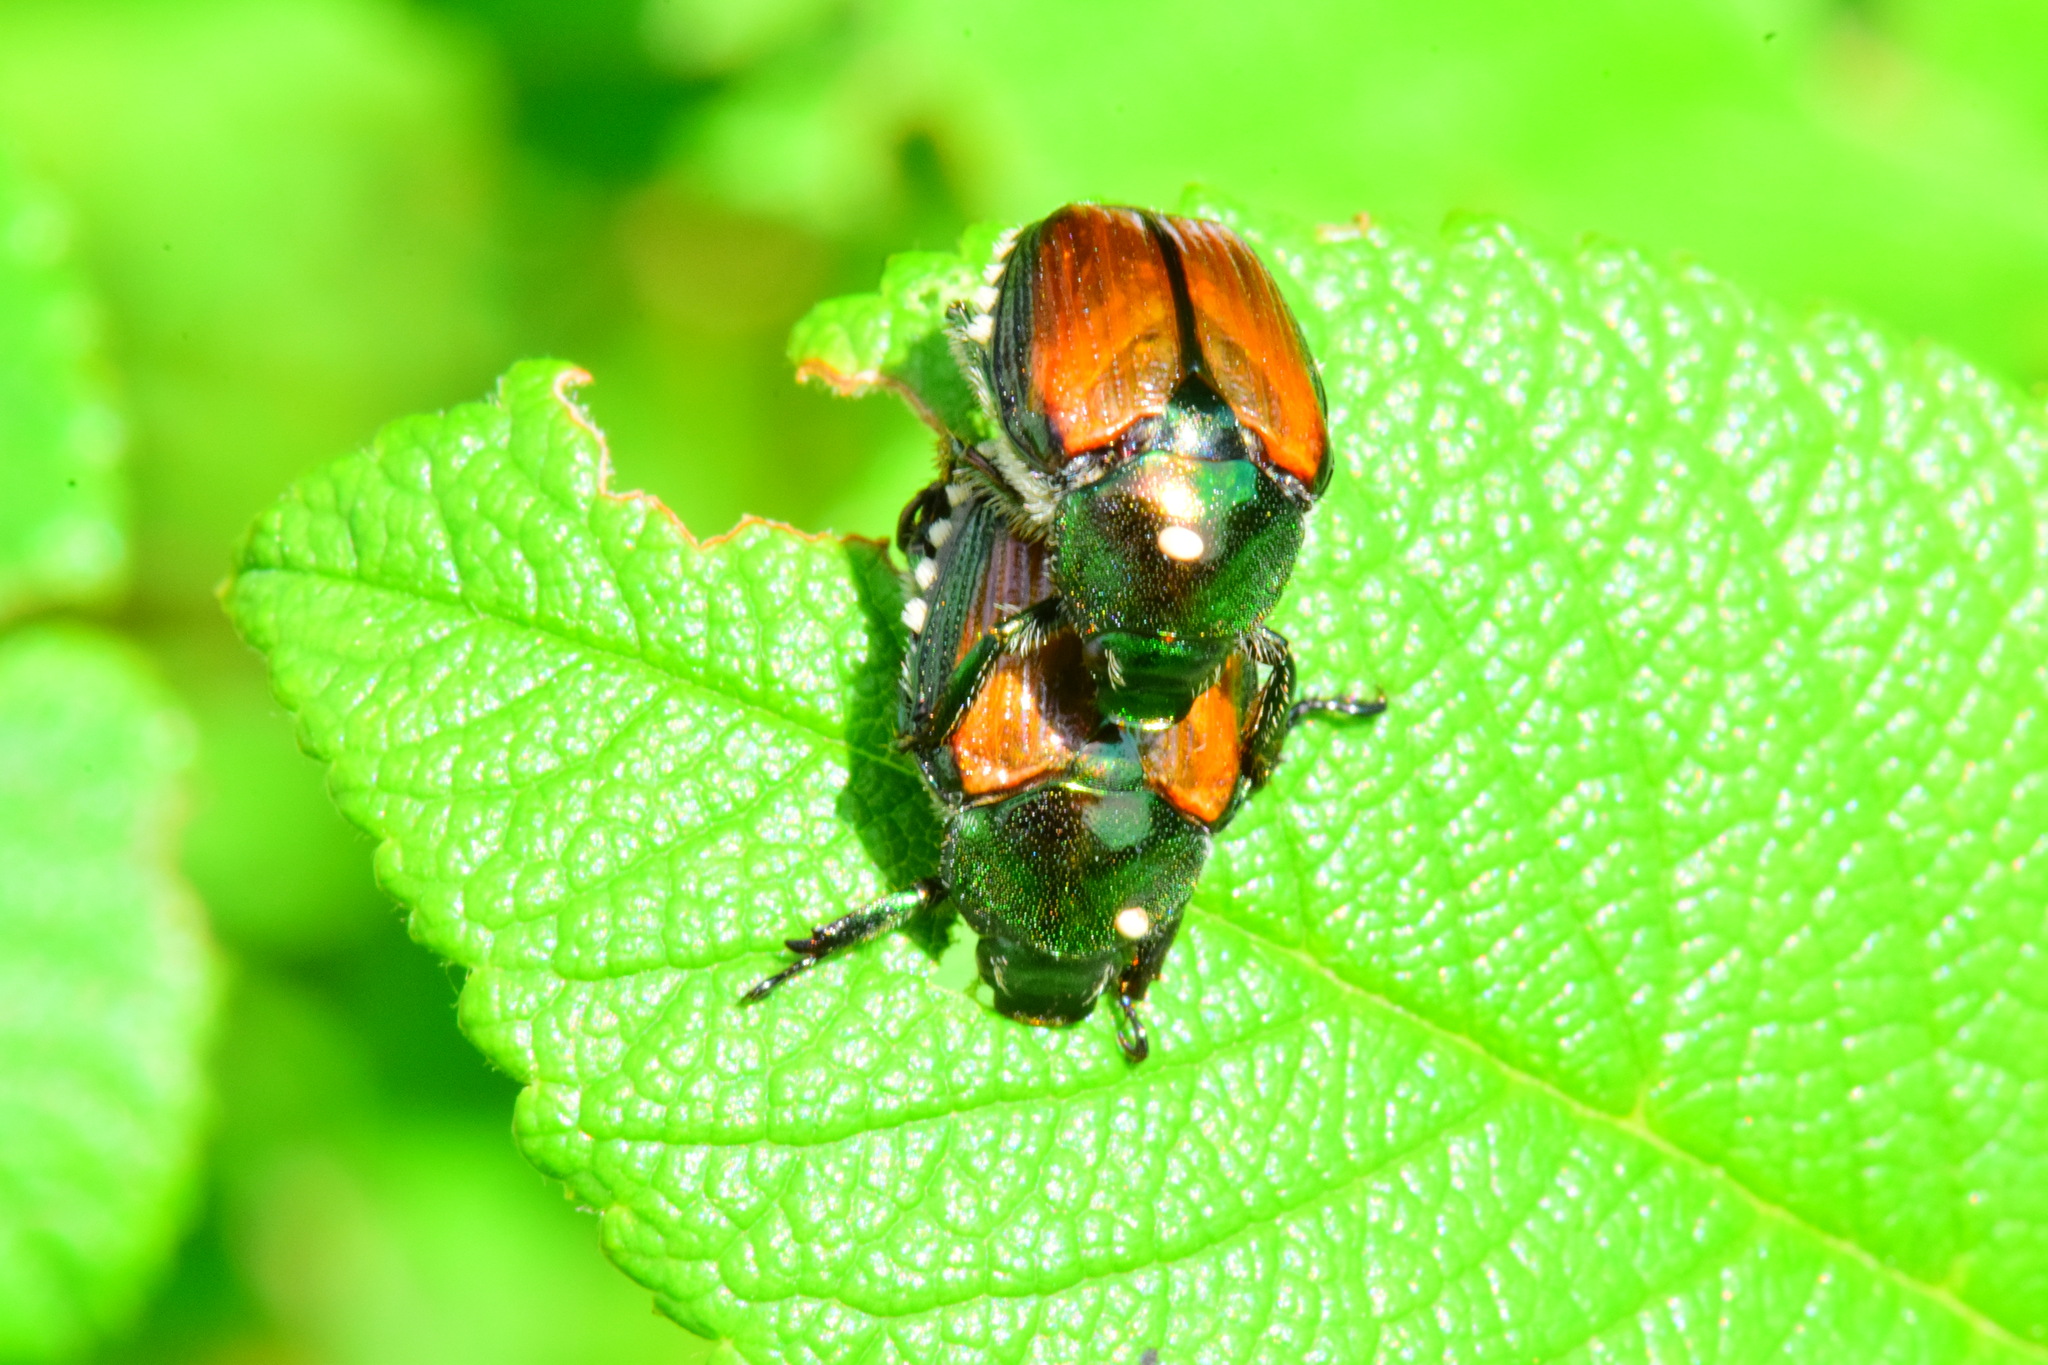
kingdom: Animalia
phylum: Arthropoda
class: Insecta
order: Coleoptera
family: Scarabaeidae
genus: Popillia
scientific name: Popillia japonica
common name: Japanese beetle
